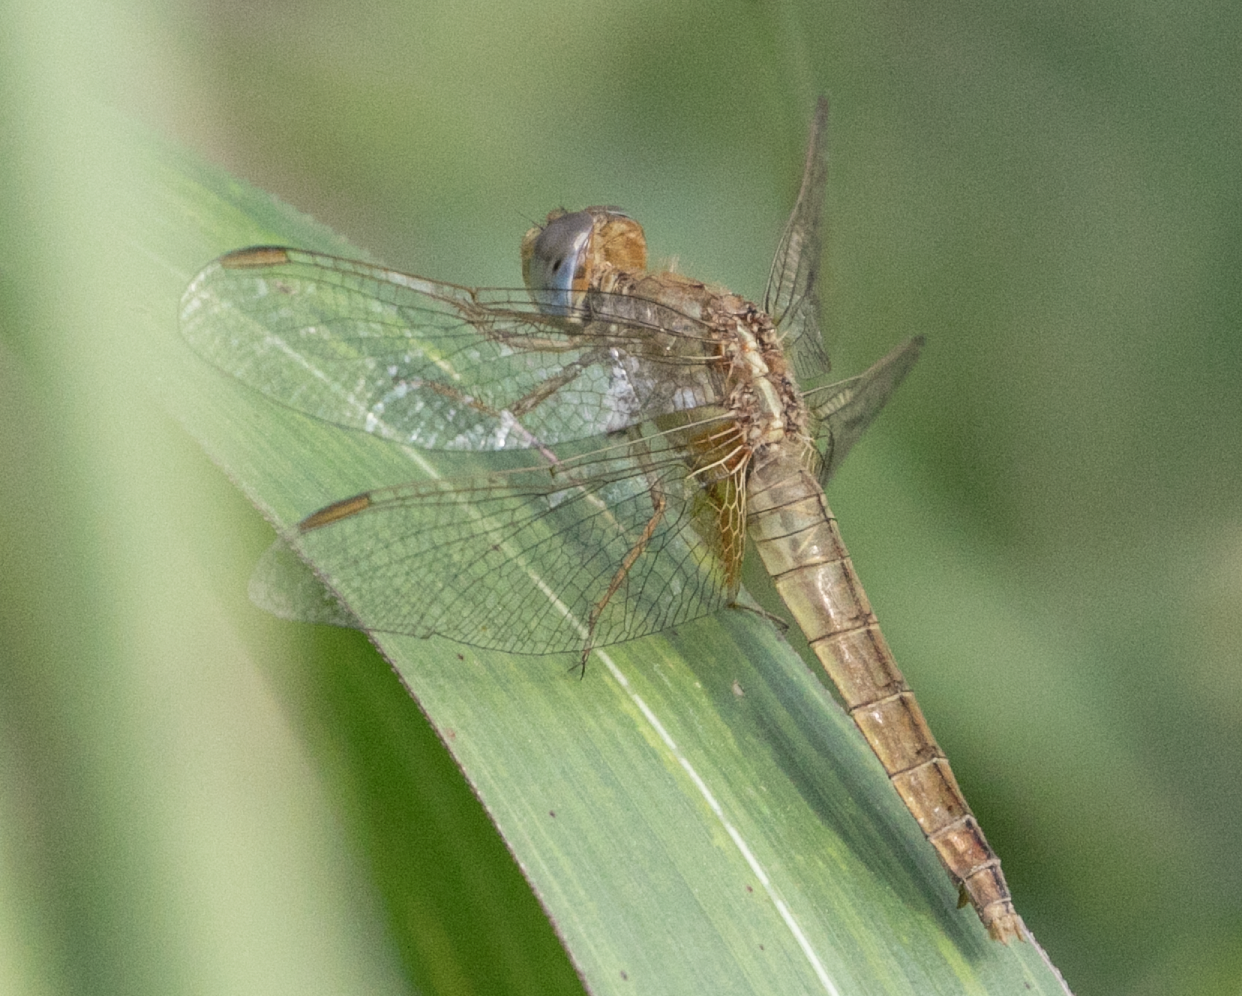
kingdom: Animalia
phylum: Arthropoda
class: Insecta
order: Odonata
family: Libellulidae
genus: Crocothemis
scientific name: Crocothemis erythraea
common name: Scarlet dragonfly
